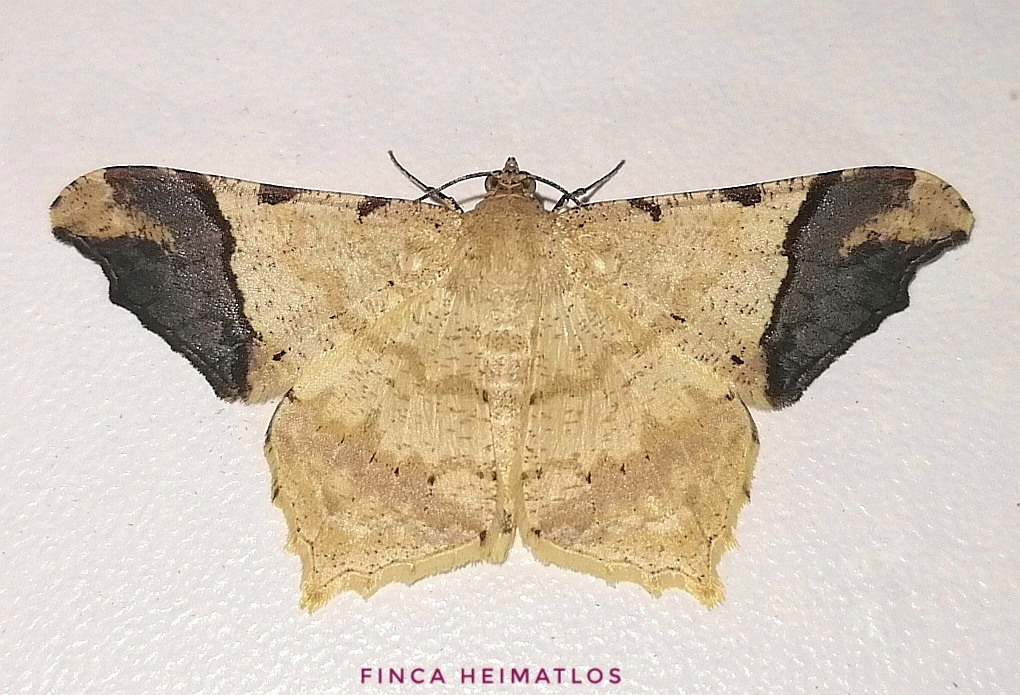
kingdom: Animalia
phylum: Arthropoda
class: Insecta
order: Lepidoptera
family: Geometridae
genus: Macaria
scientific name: Macaria gambarina
